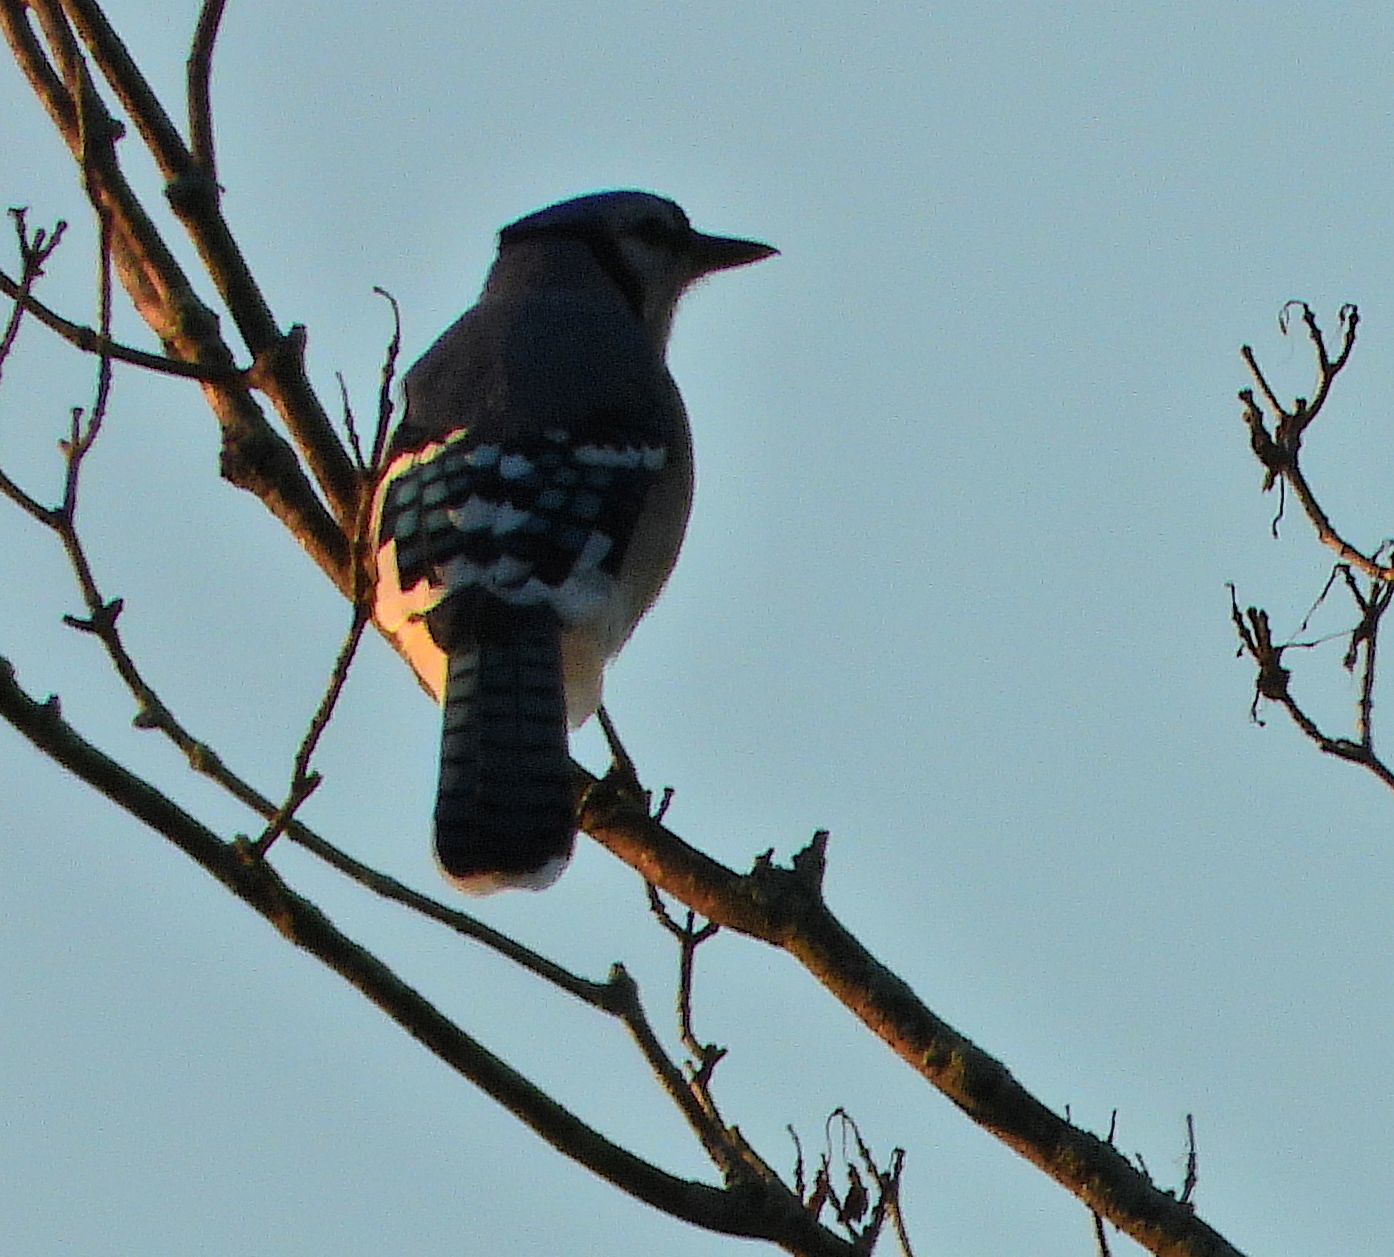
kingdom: Animalia
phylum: Chordata
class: Aves
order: Passeriformes
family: Corvidae
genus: Cyanocitta
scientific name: Cyanocitta cristata
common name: Blue jay
